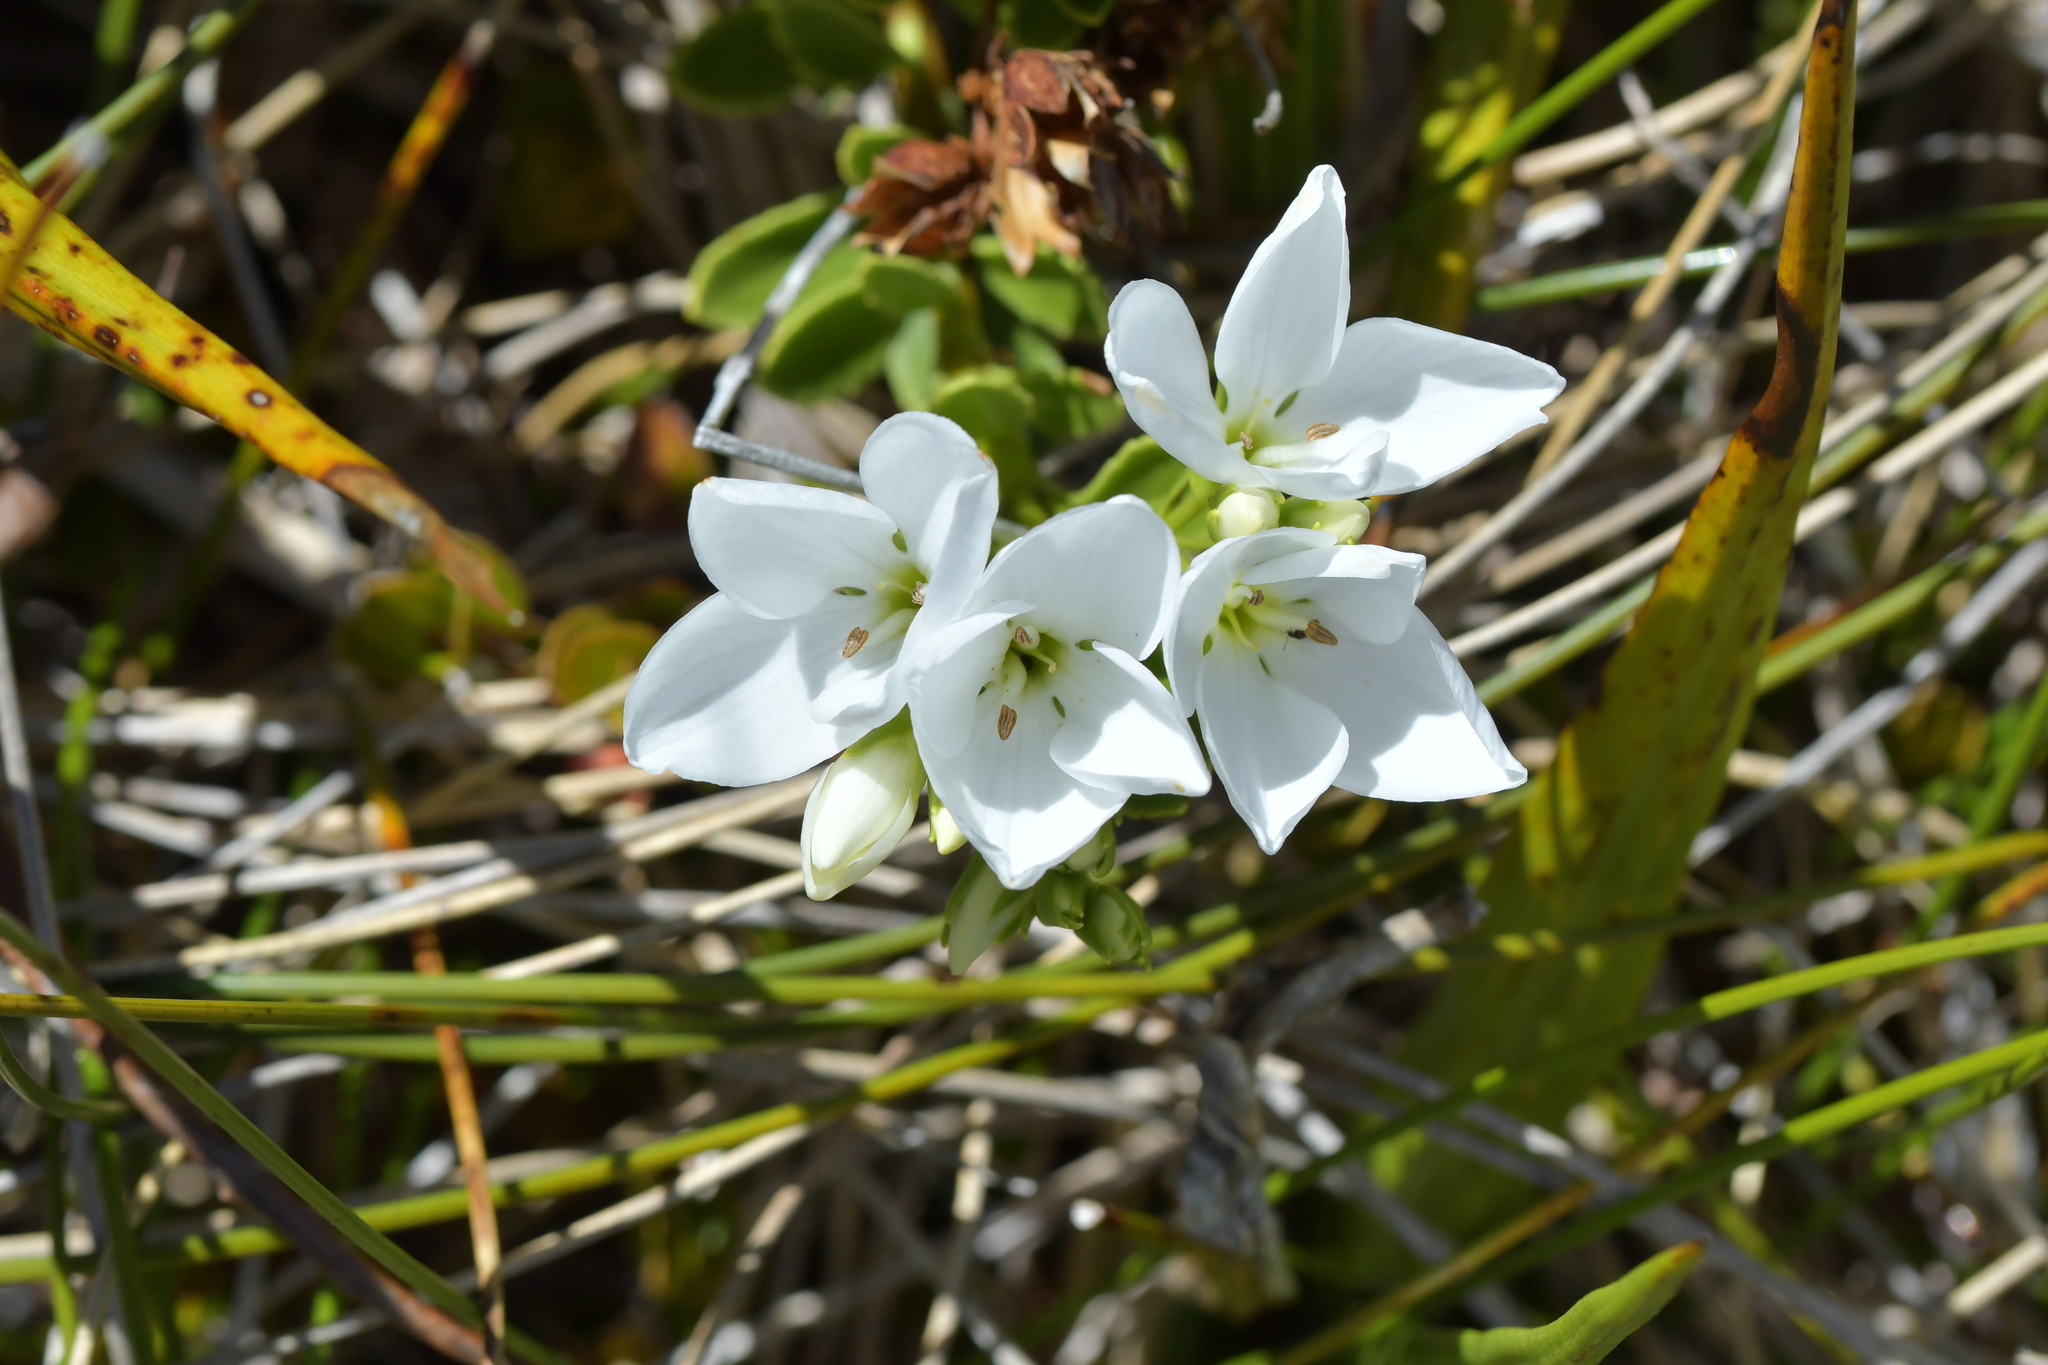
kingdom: Plantae
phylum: Tracheophyta
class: Magnoliopsida
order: Lamiales
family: Plantaginaceae
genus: Veronica
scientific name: Veronica macrantha
